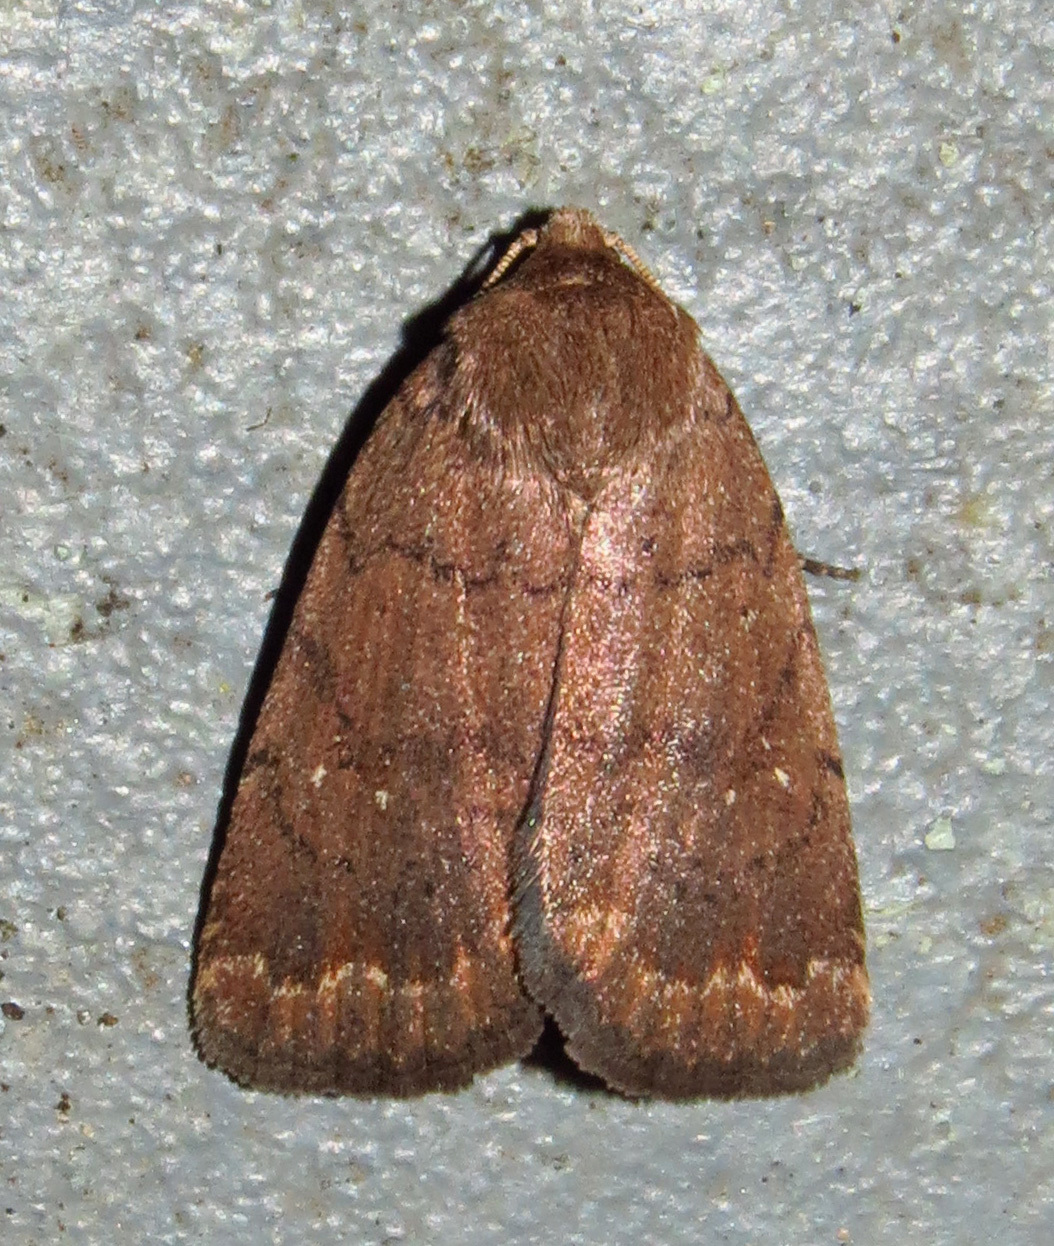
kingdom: Animalia
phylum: Arthropoda
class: Insecta
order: Lepidoptera
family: Noctuidae
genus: Athetis
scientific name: Athetis tarda
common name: Slowpoke moth
